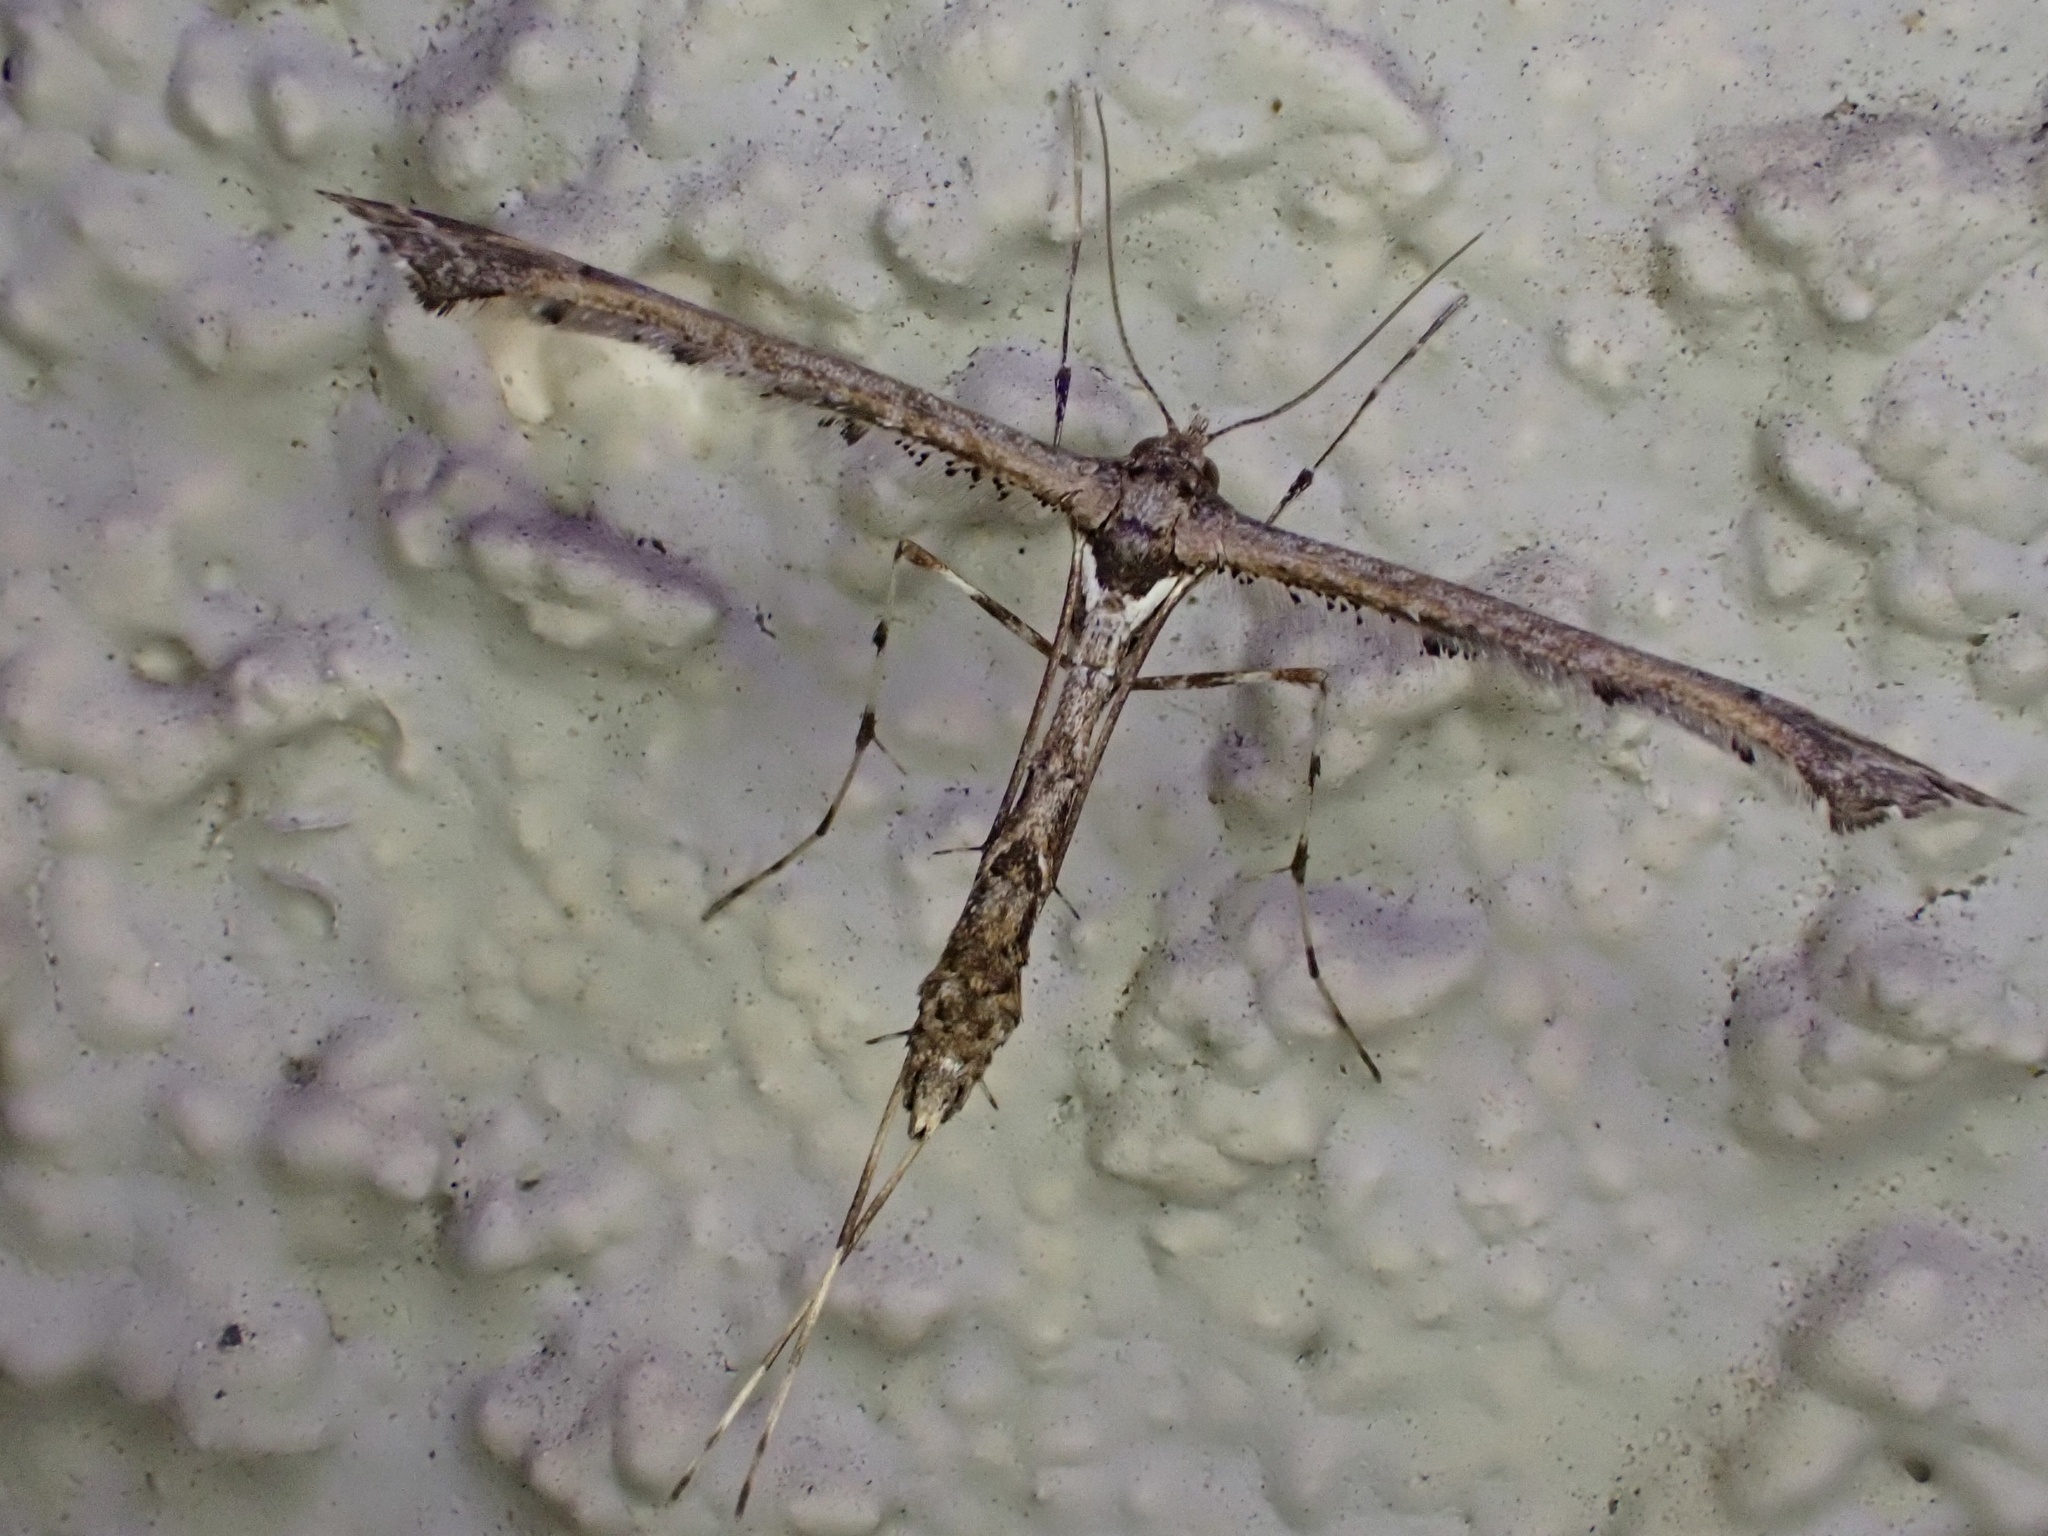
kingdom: Animalia
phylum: Arthropoda
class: Insecta
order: Lepidoptera
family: Pterophoridae
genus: Anstenoptilia
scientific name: Anstenoptilia marmarodactyla
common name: Moth
